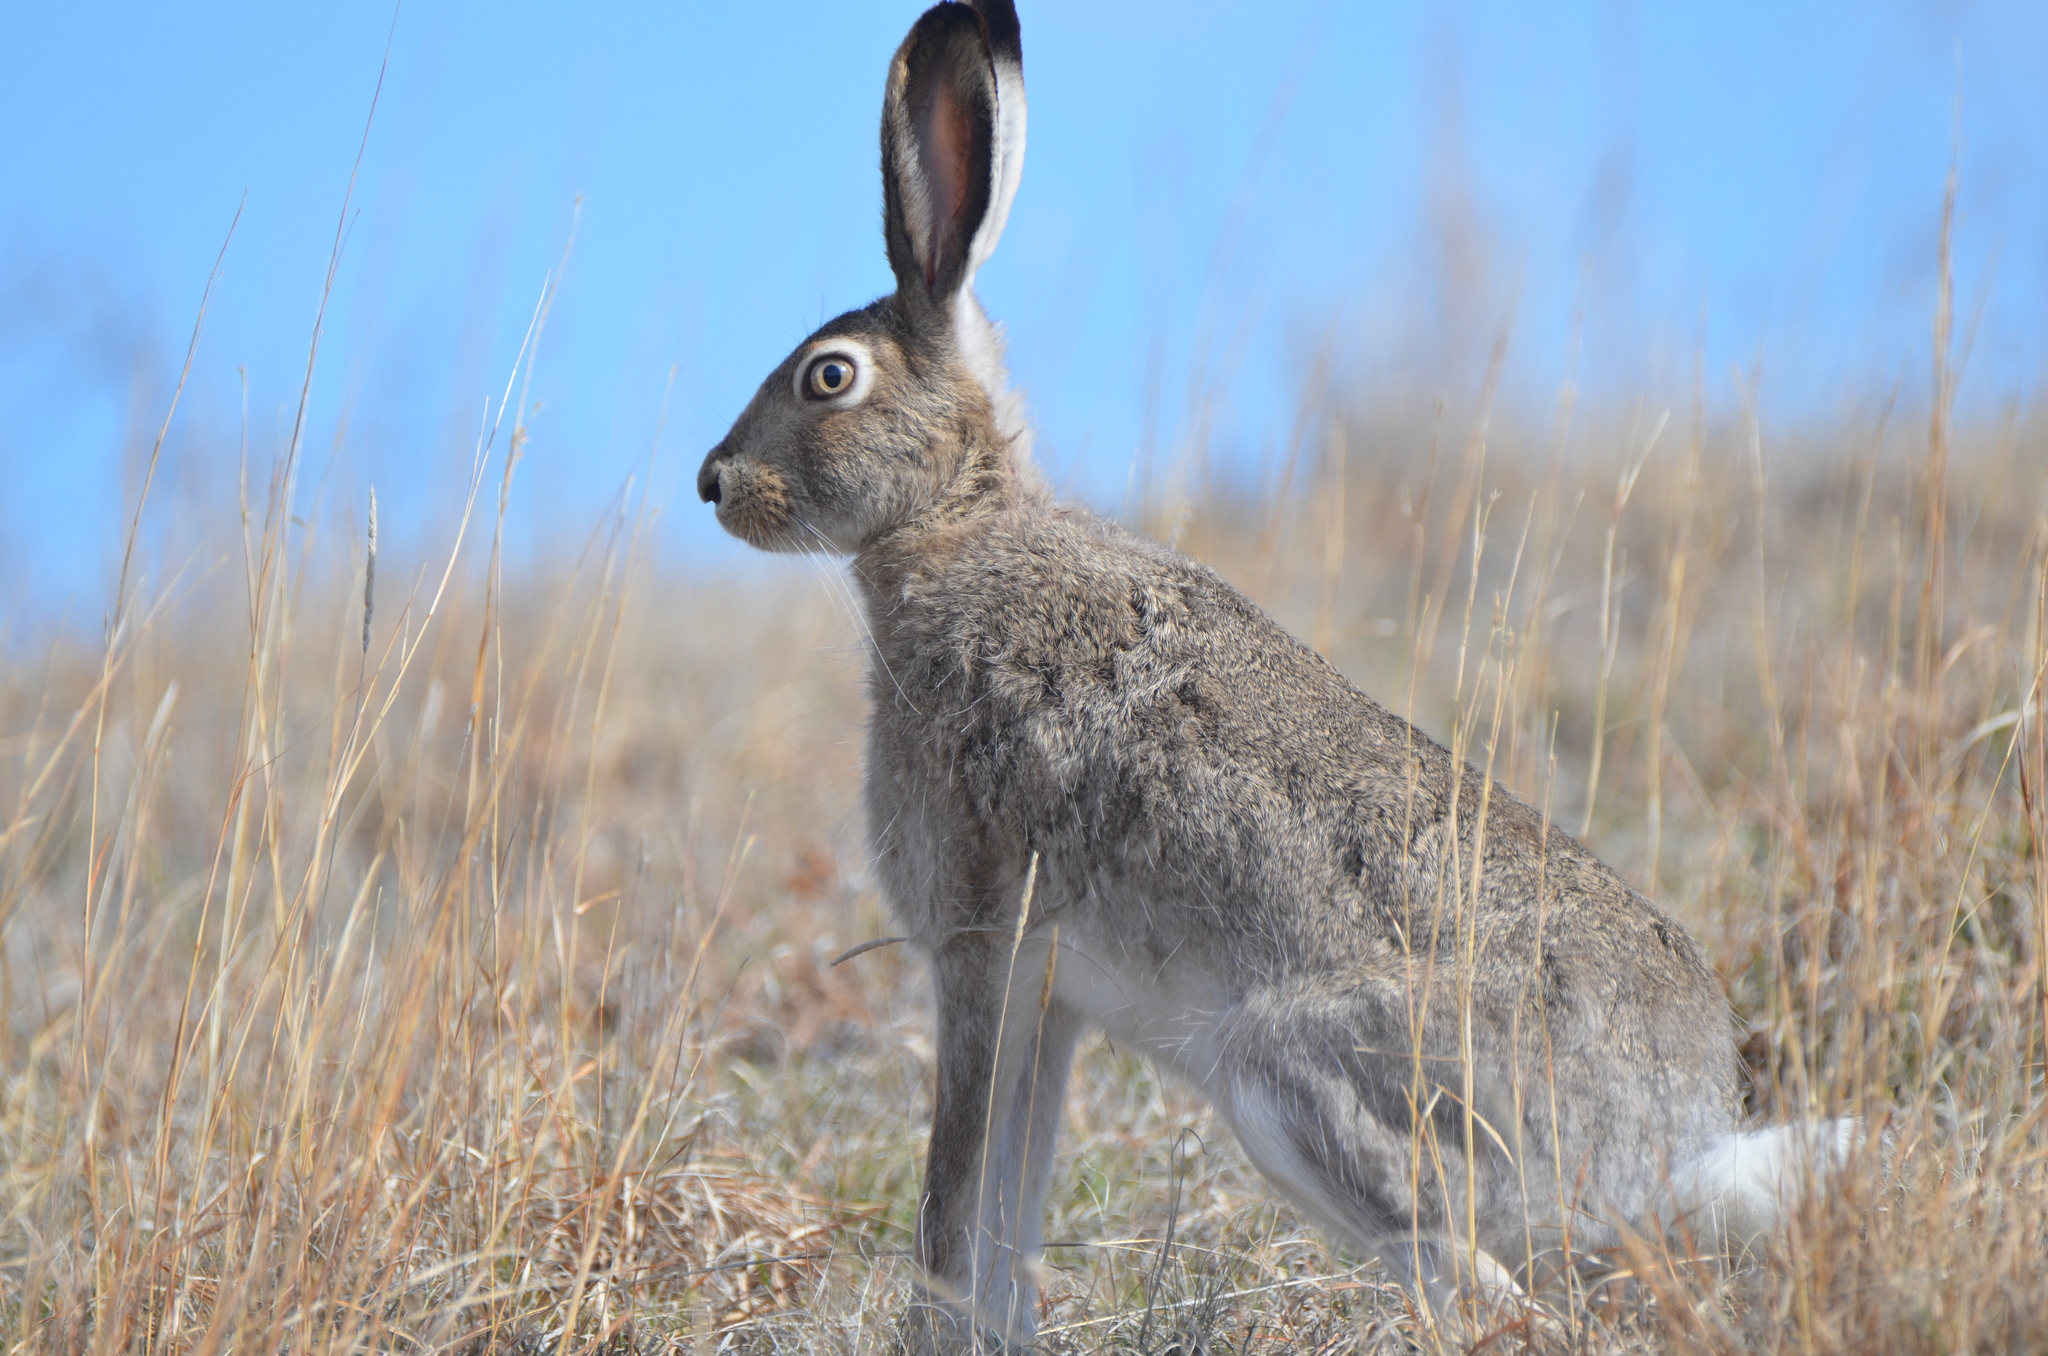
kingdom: Animalia
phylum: Chordata
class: Mammalia
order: Lagomorpha
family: Leporidae
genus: Lepus
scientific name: Lepus townsendii
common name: White-tailed jackrabbit
